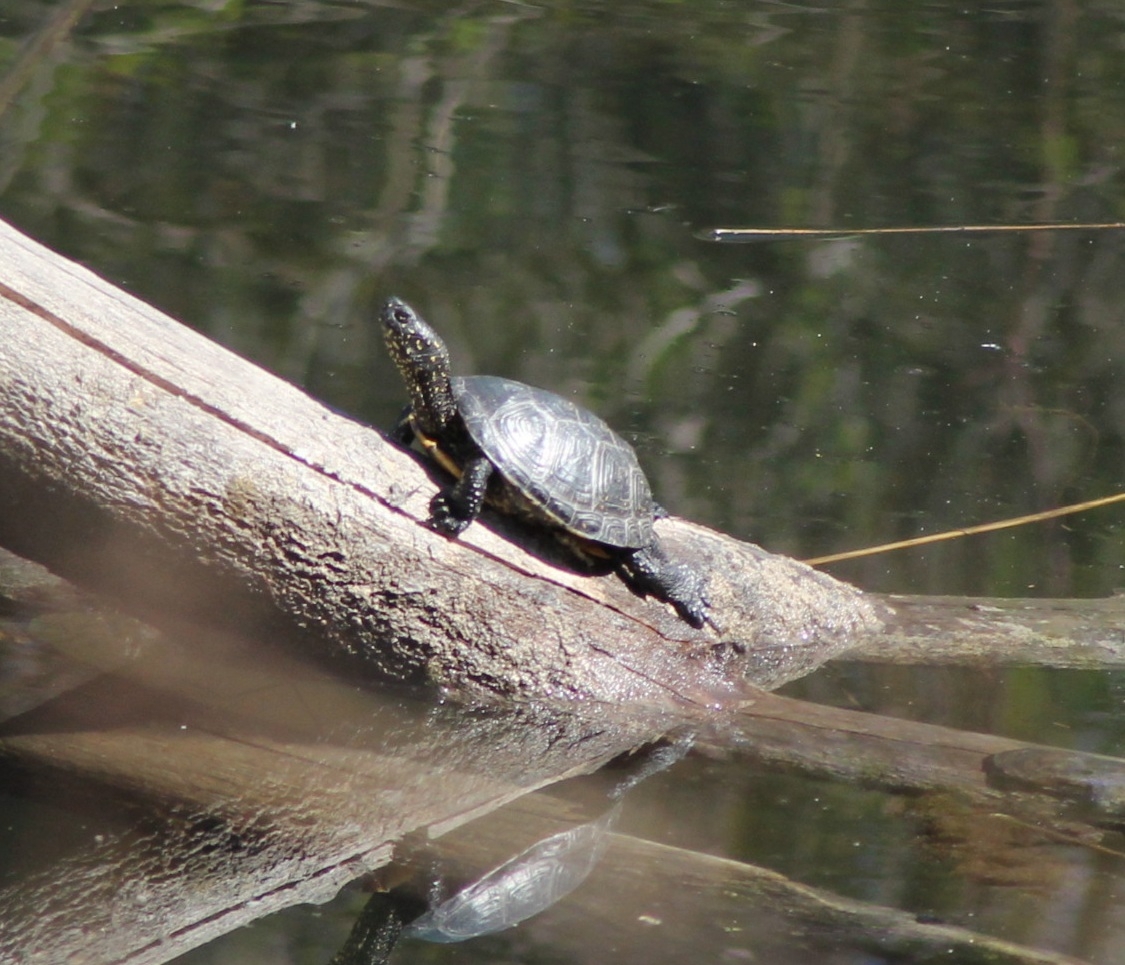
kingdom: Animalia
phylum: Chordata
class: Testudines
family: Emydidae
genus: Emys
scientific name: Emys orbicularis
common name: European pond turtle
